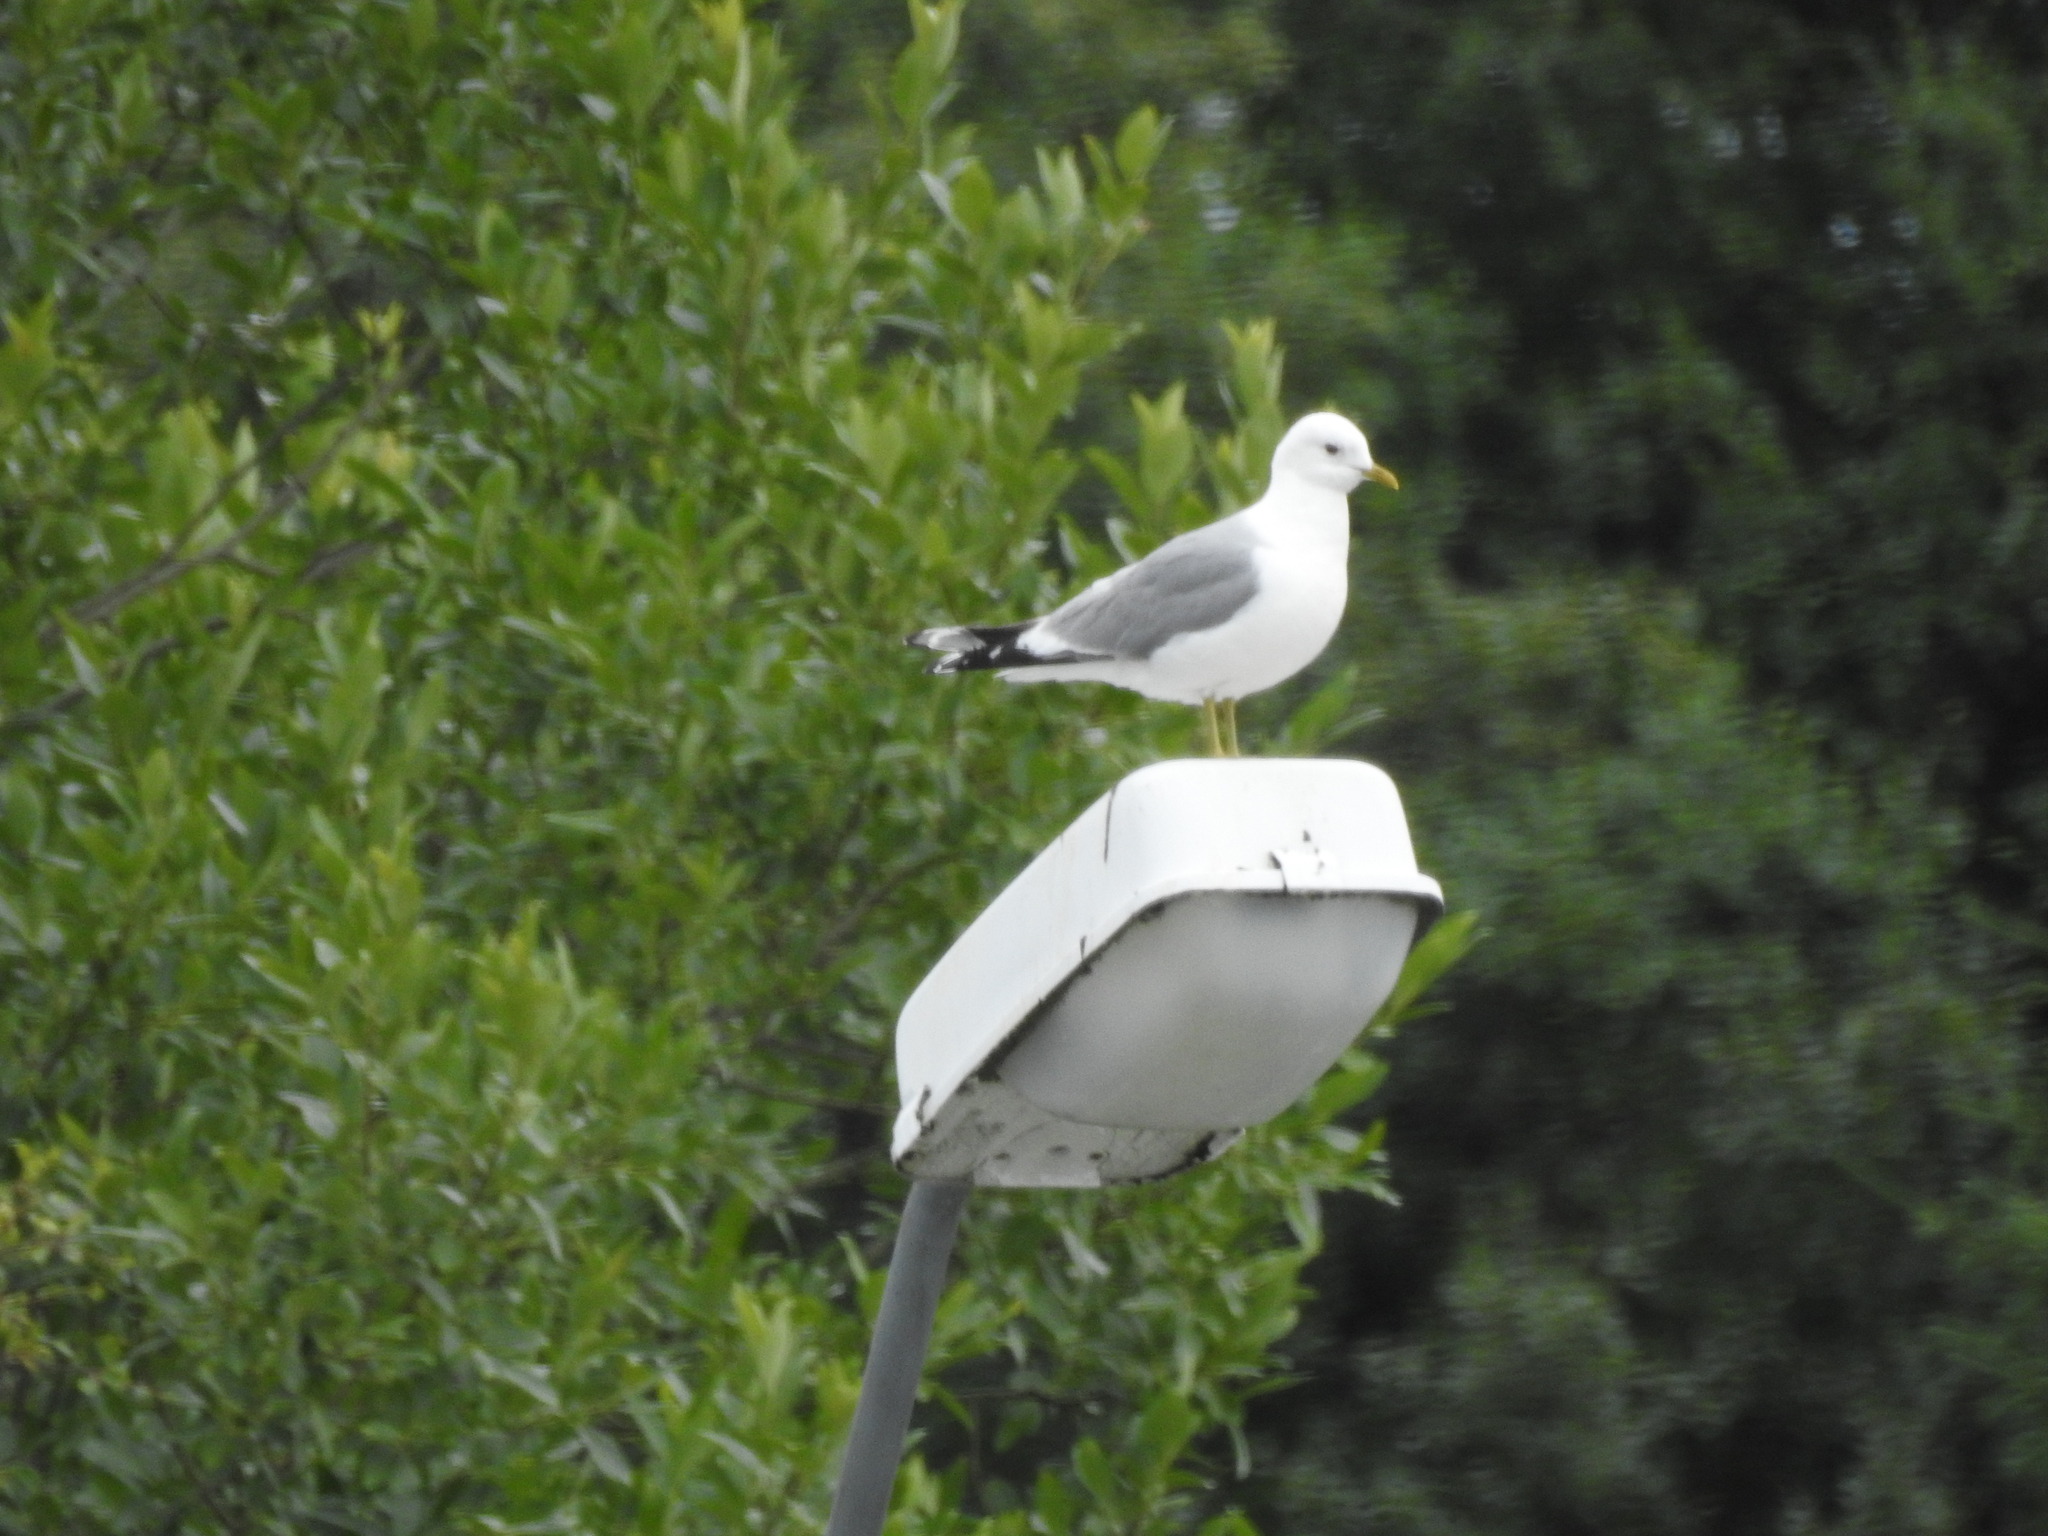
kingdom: Animalia
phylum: Chordata
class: Aves
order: Charadriiformes
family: Laridae
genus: Larus
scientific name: Larus canus
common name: Mew gull
